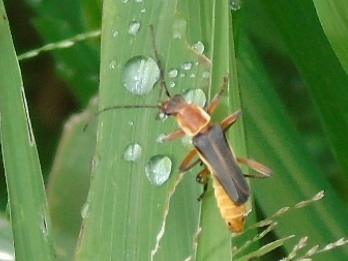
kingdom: Animalia
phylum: Arthropoda
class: Insecta
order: Coleoptera
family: Cantharidae
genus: Chauliognathus
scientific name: Chauliognathus
